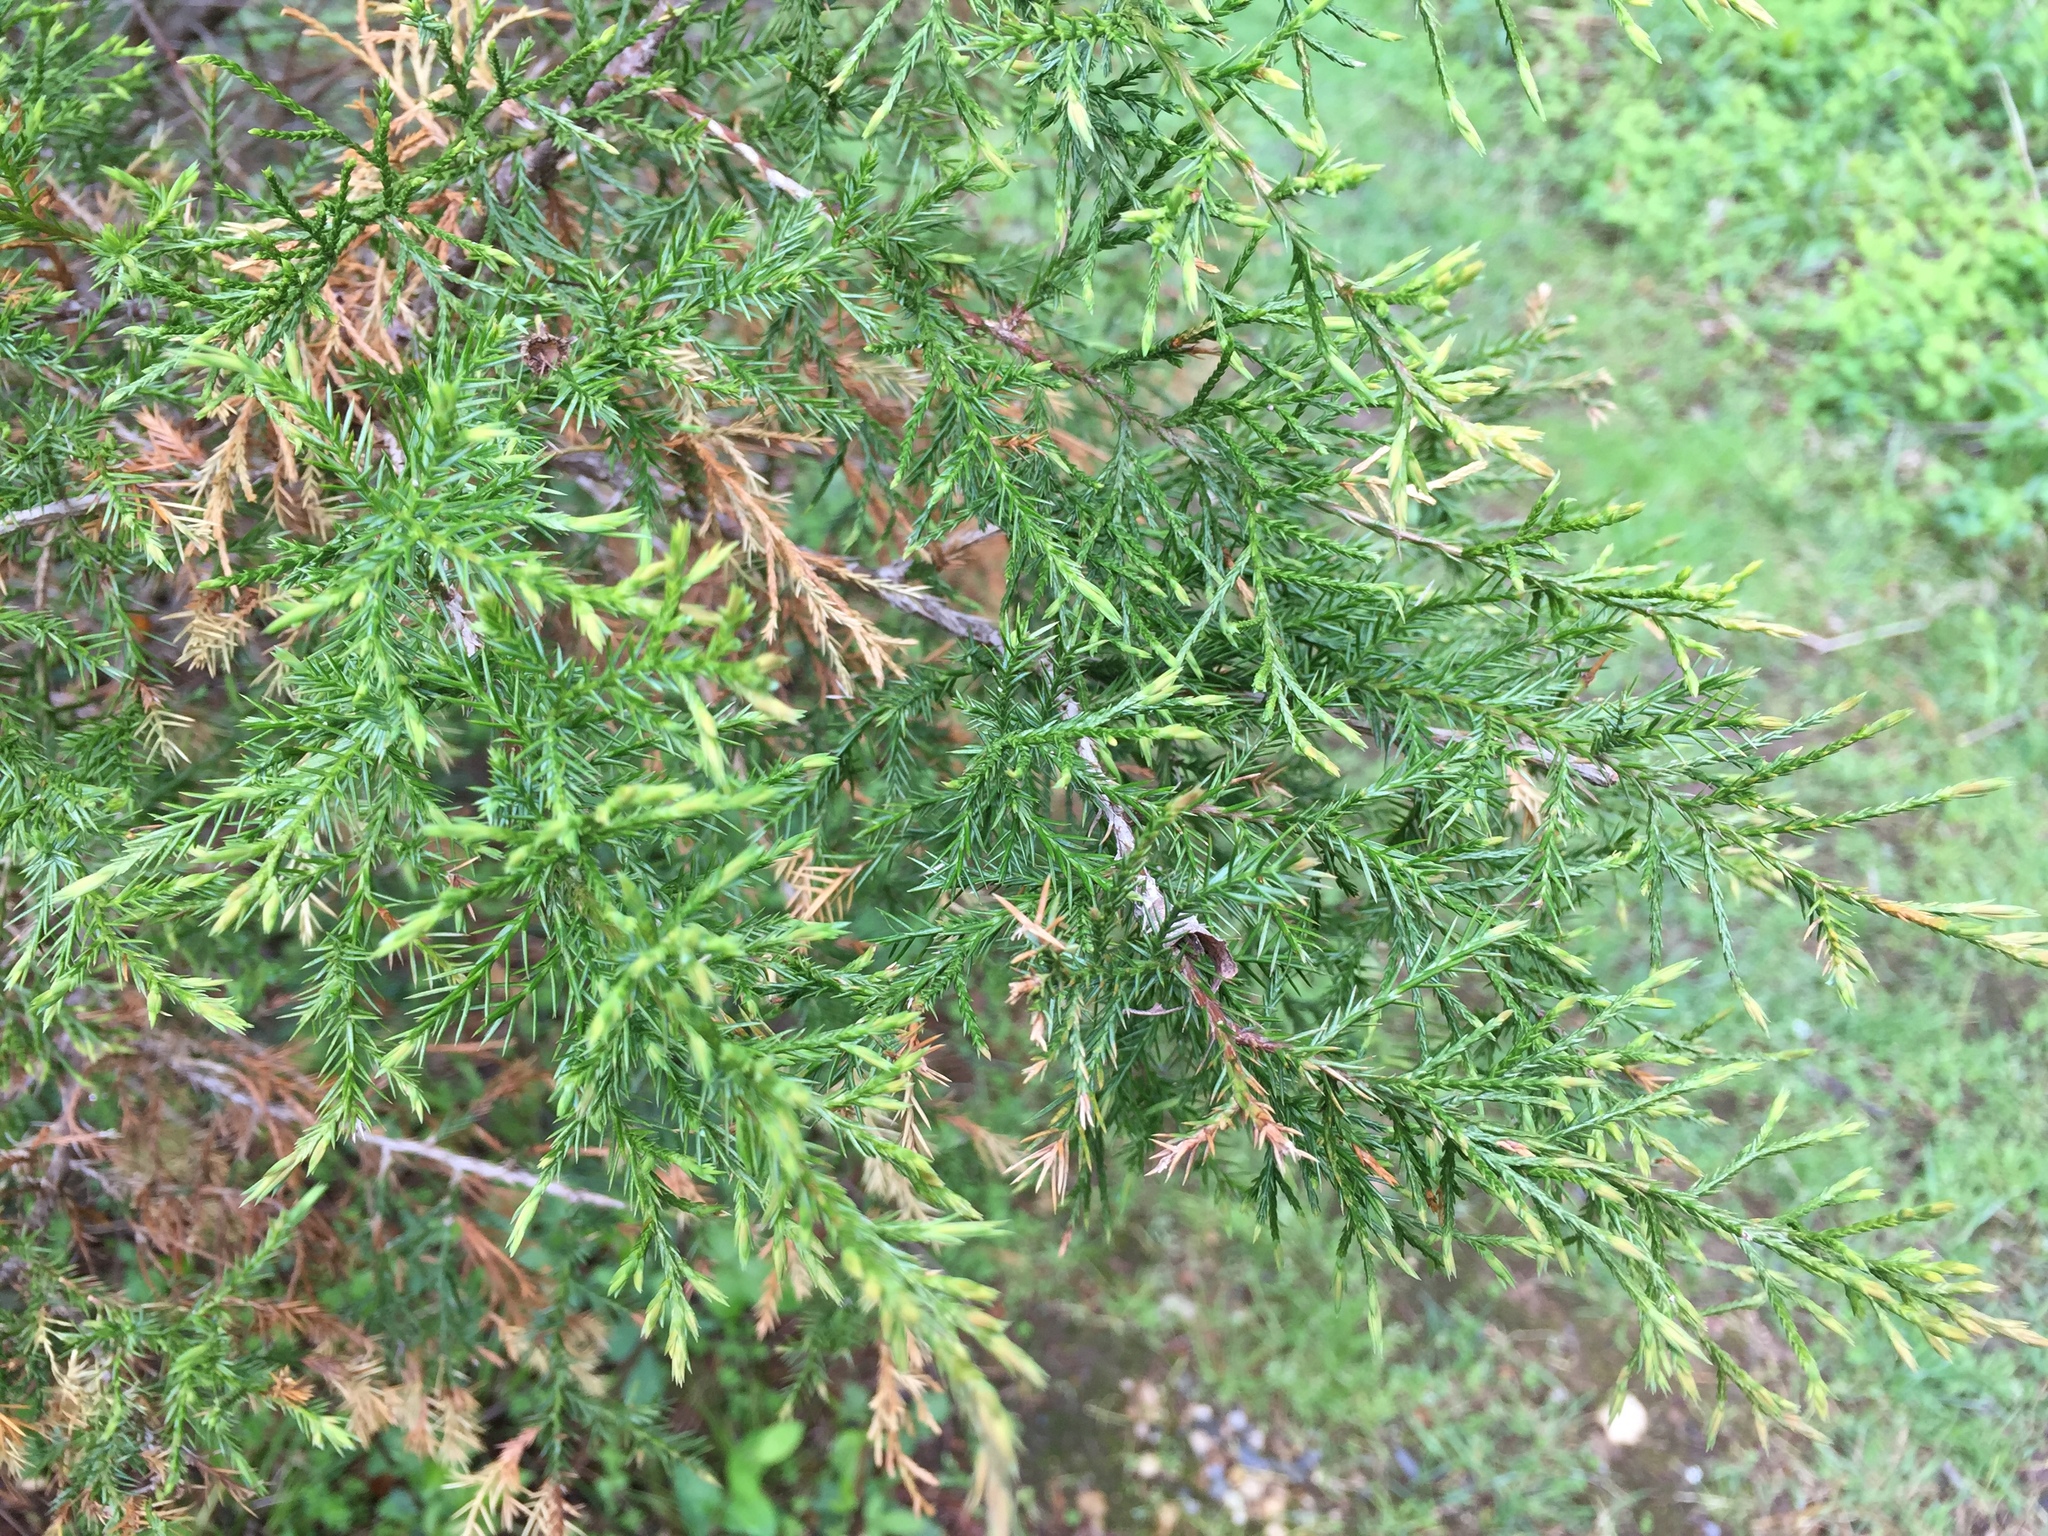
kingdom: Plantae
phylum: Tracheophyta
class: Pinopsida
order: Pinales
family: Cupressaceae
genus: Juniperus
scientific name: Juniperus virginiana
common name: Red juniper
